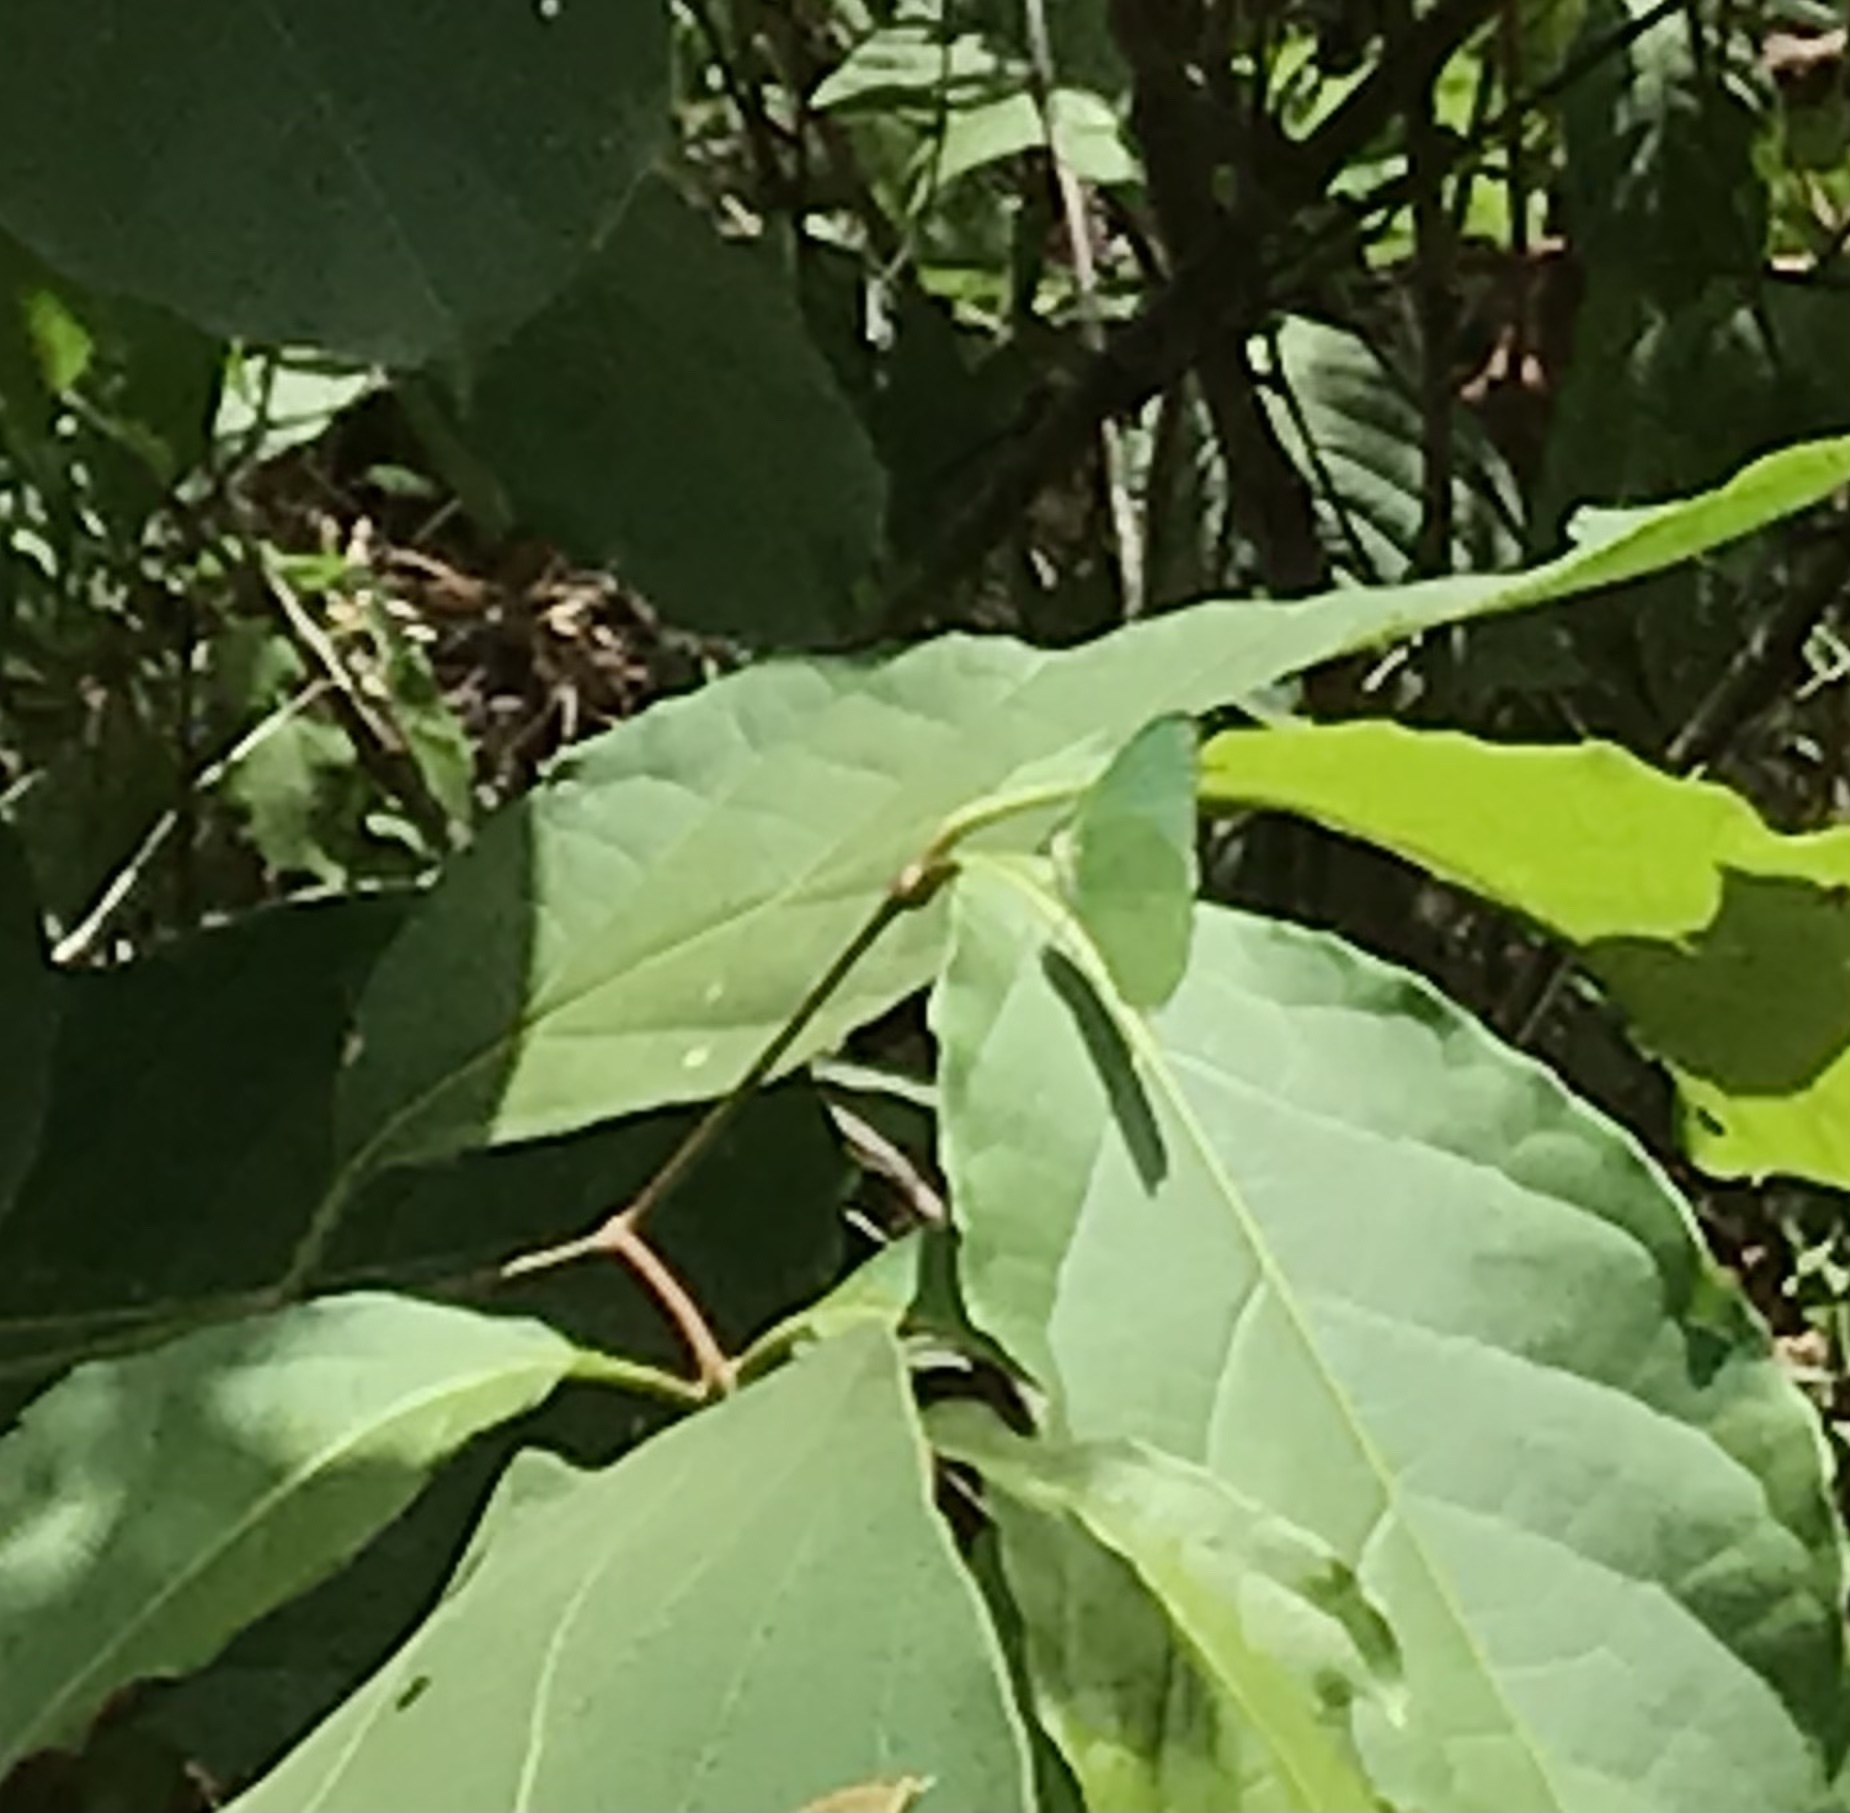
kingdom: Animalia
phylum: Arthropoda
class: Insecta
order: Lepidoptera
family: Pieridae
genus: Catopsilia
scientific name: Catopsilia pomona
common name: Common emigrant
